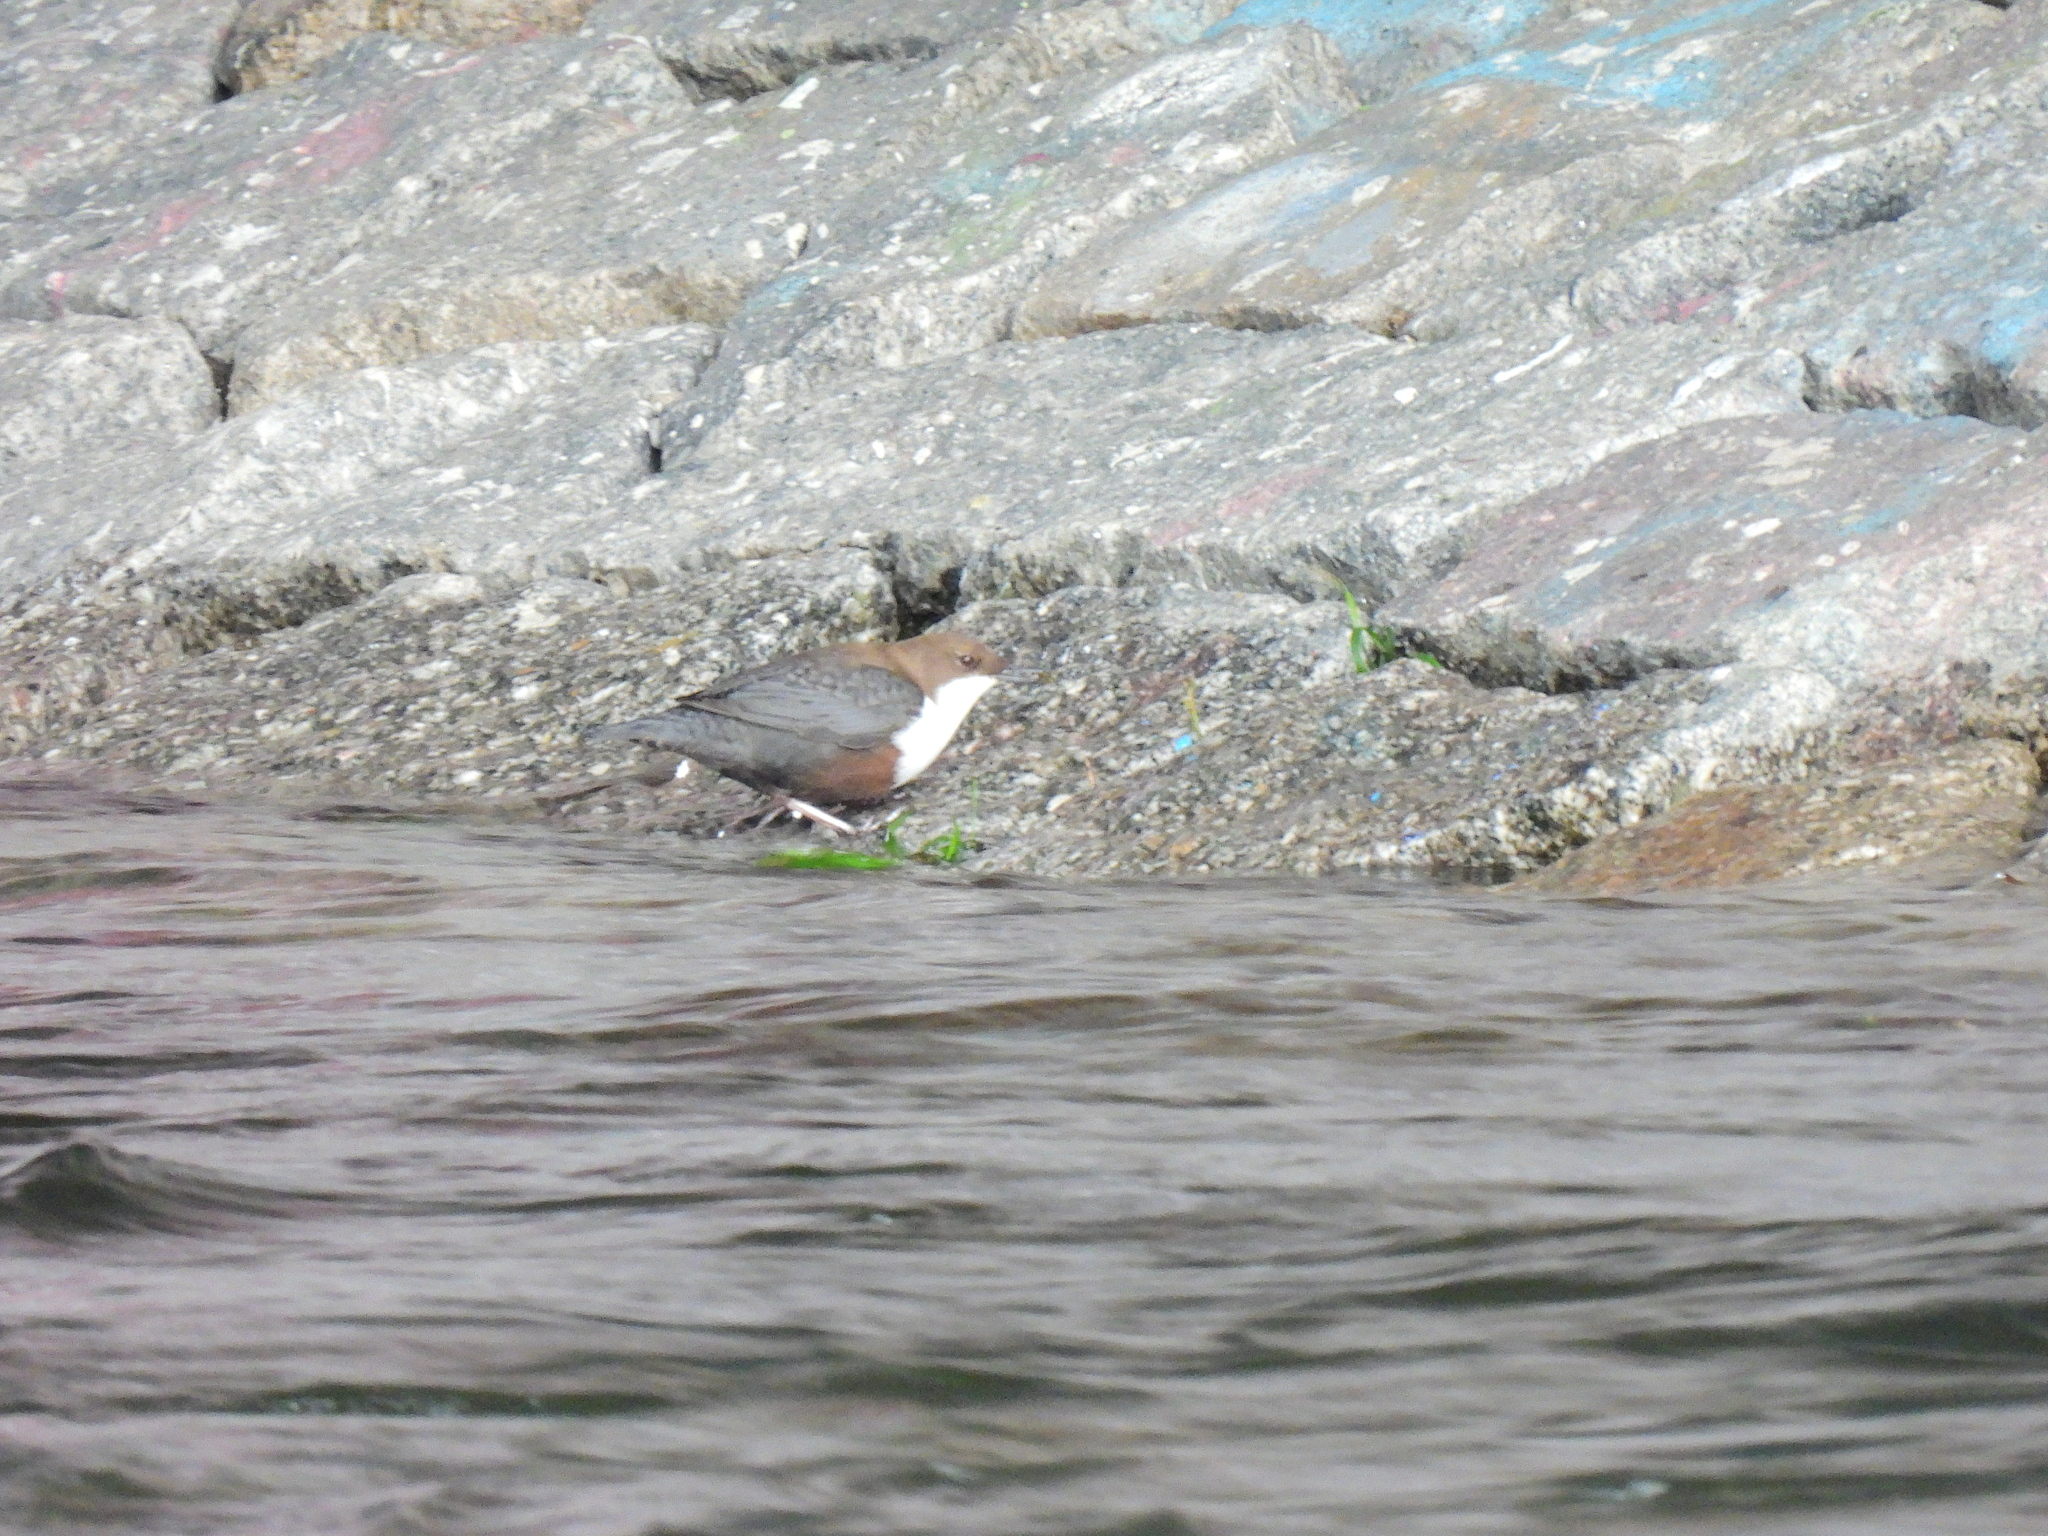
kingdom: Animalia
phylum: Chordata
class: Aves
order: Passeriformes
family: Cinclidae
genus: Cinclus
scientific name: Cinclus cinclus
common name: White-throated dipper
